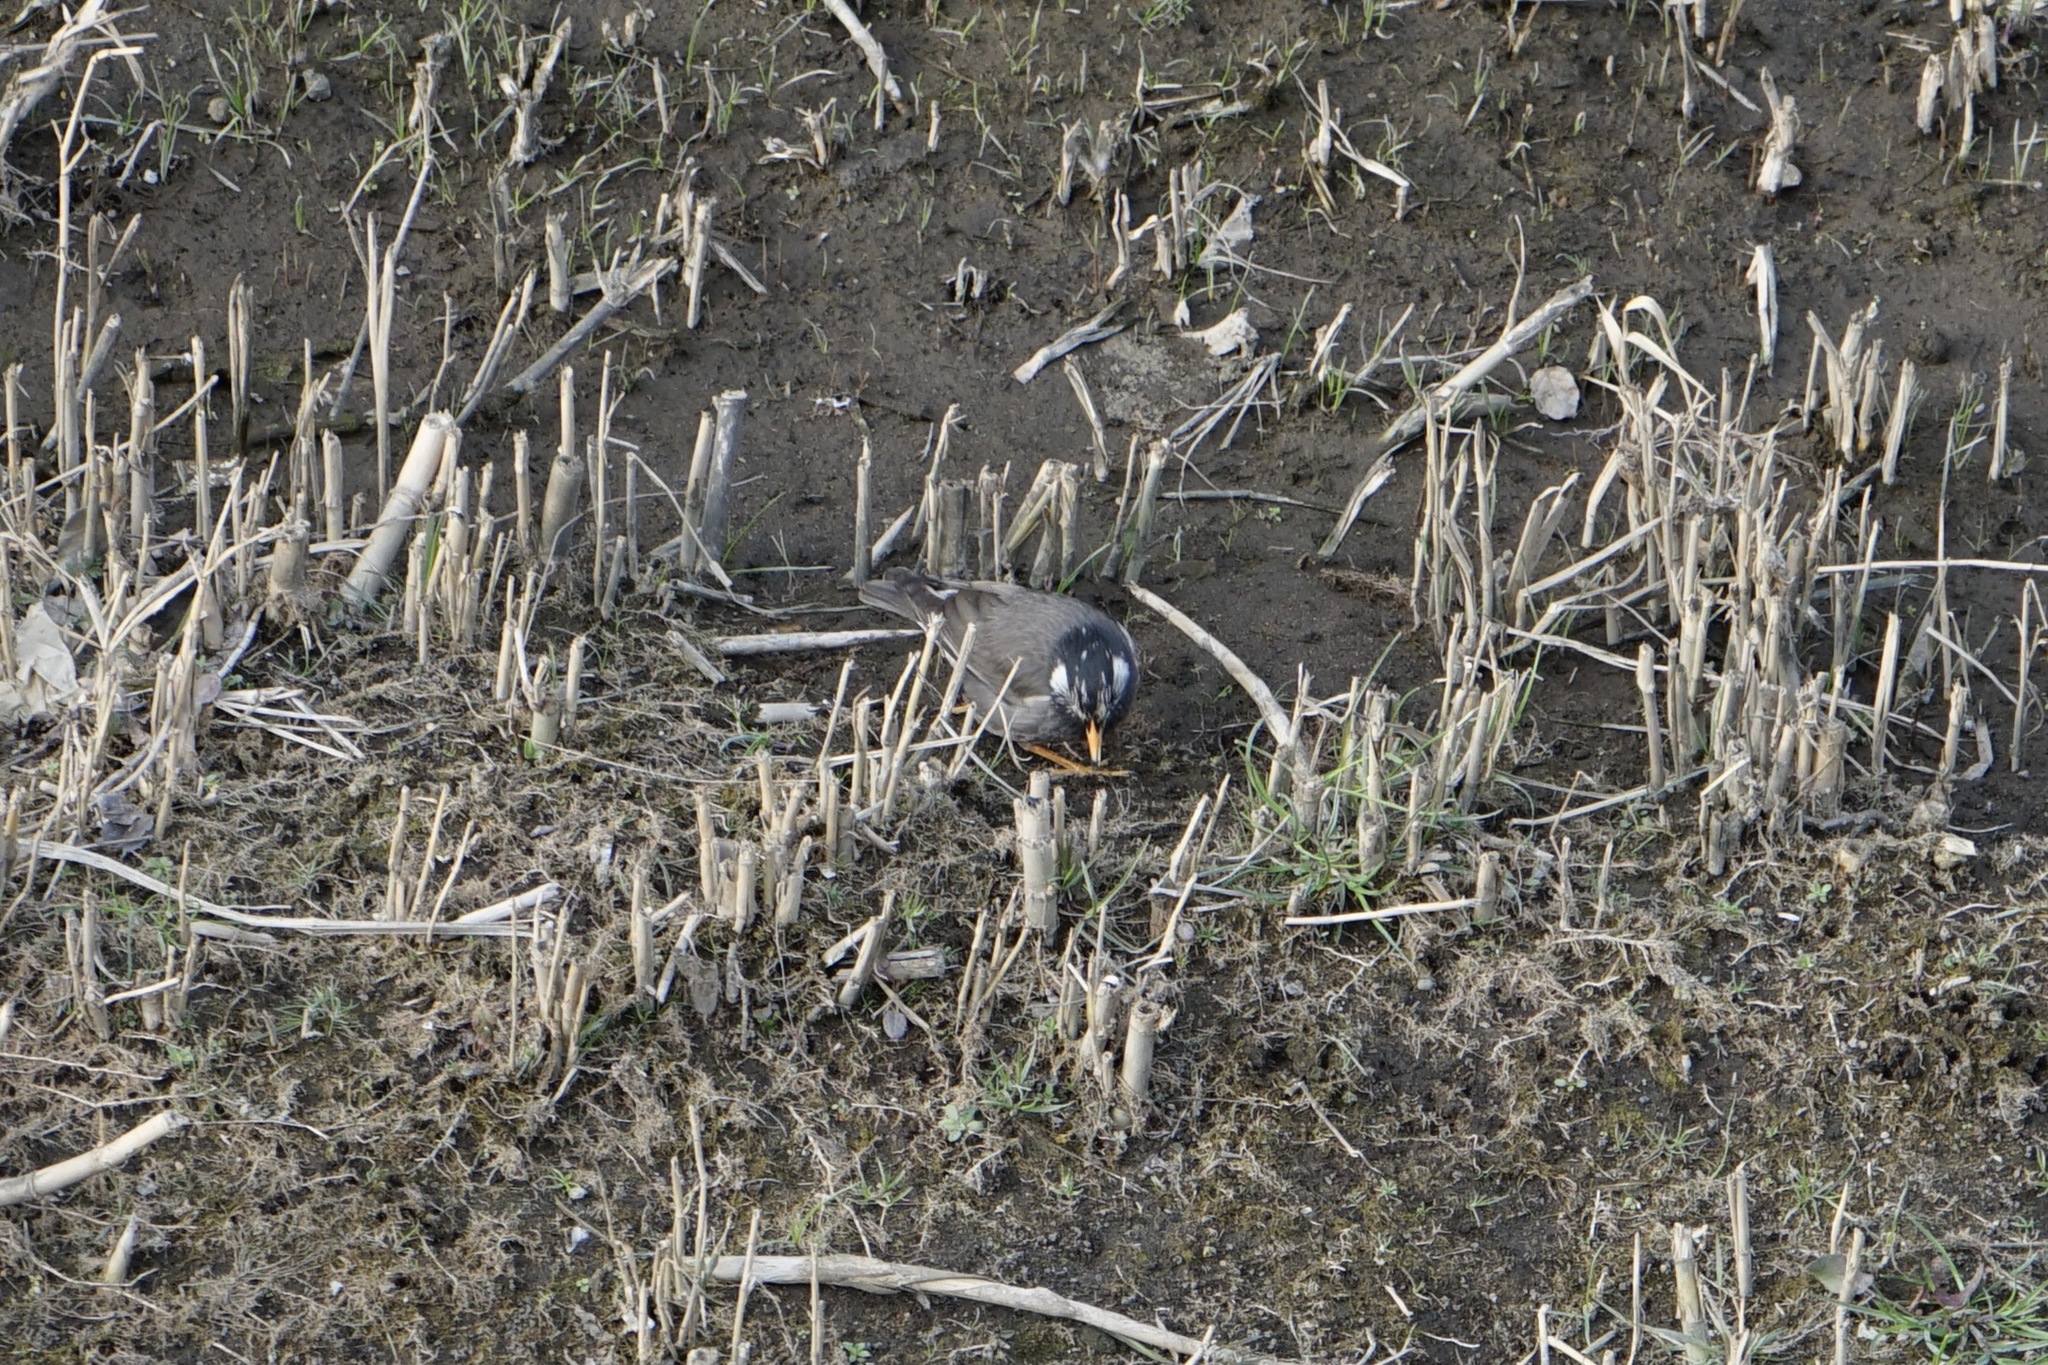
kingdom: Animalia
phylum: Chordata
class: Aves
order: Passeriformes
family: Sturnidae
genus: Spodiopsar
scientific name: Spodiopsar cineraceus
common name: White-cheeked starling
